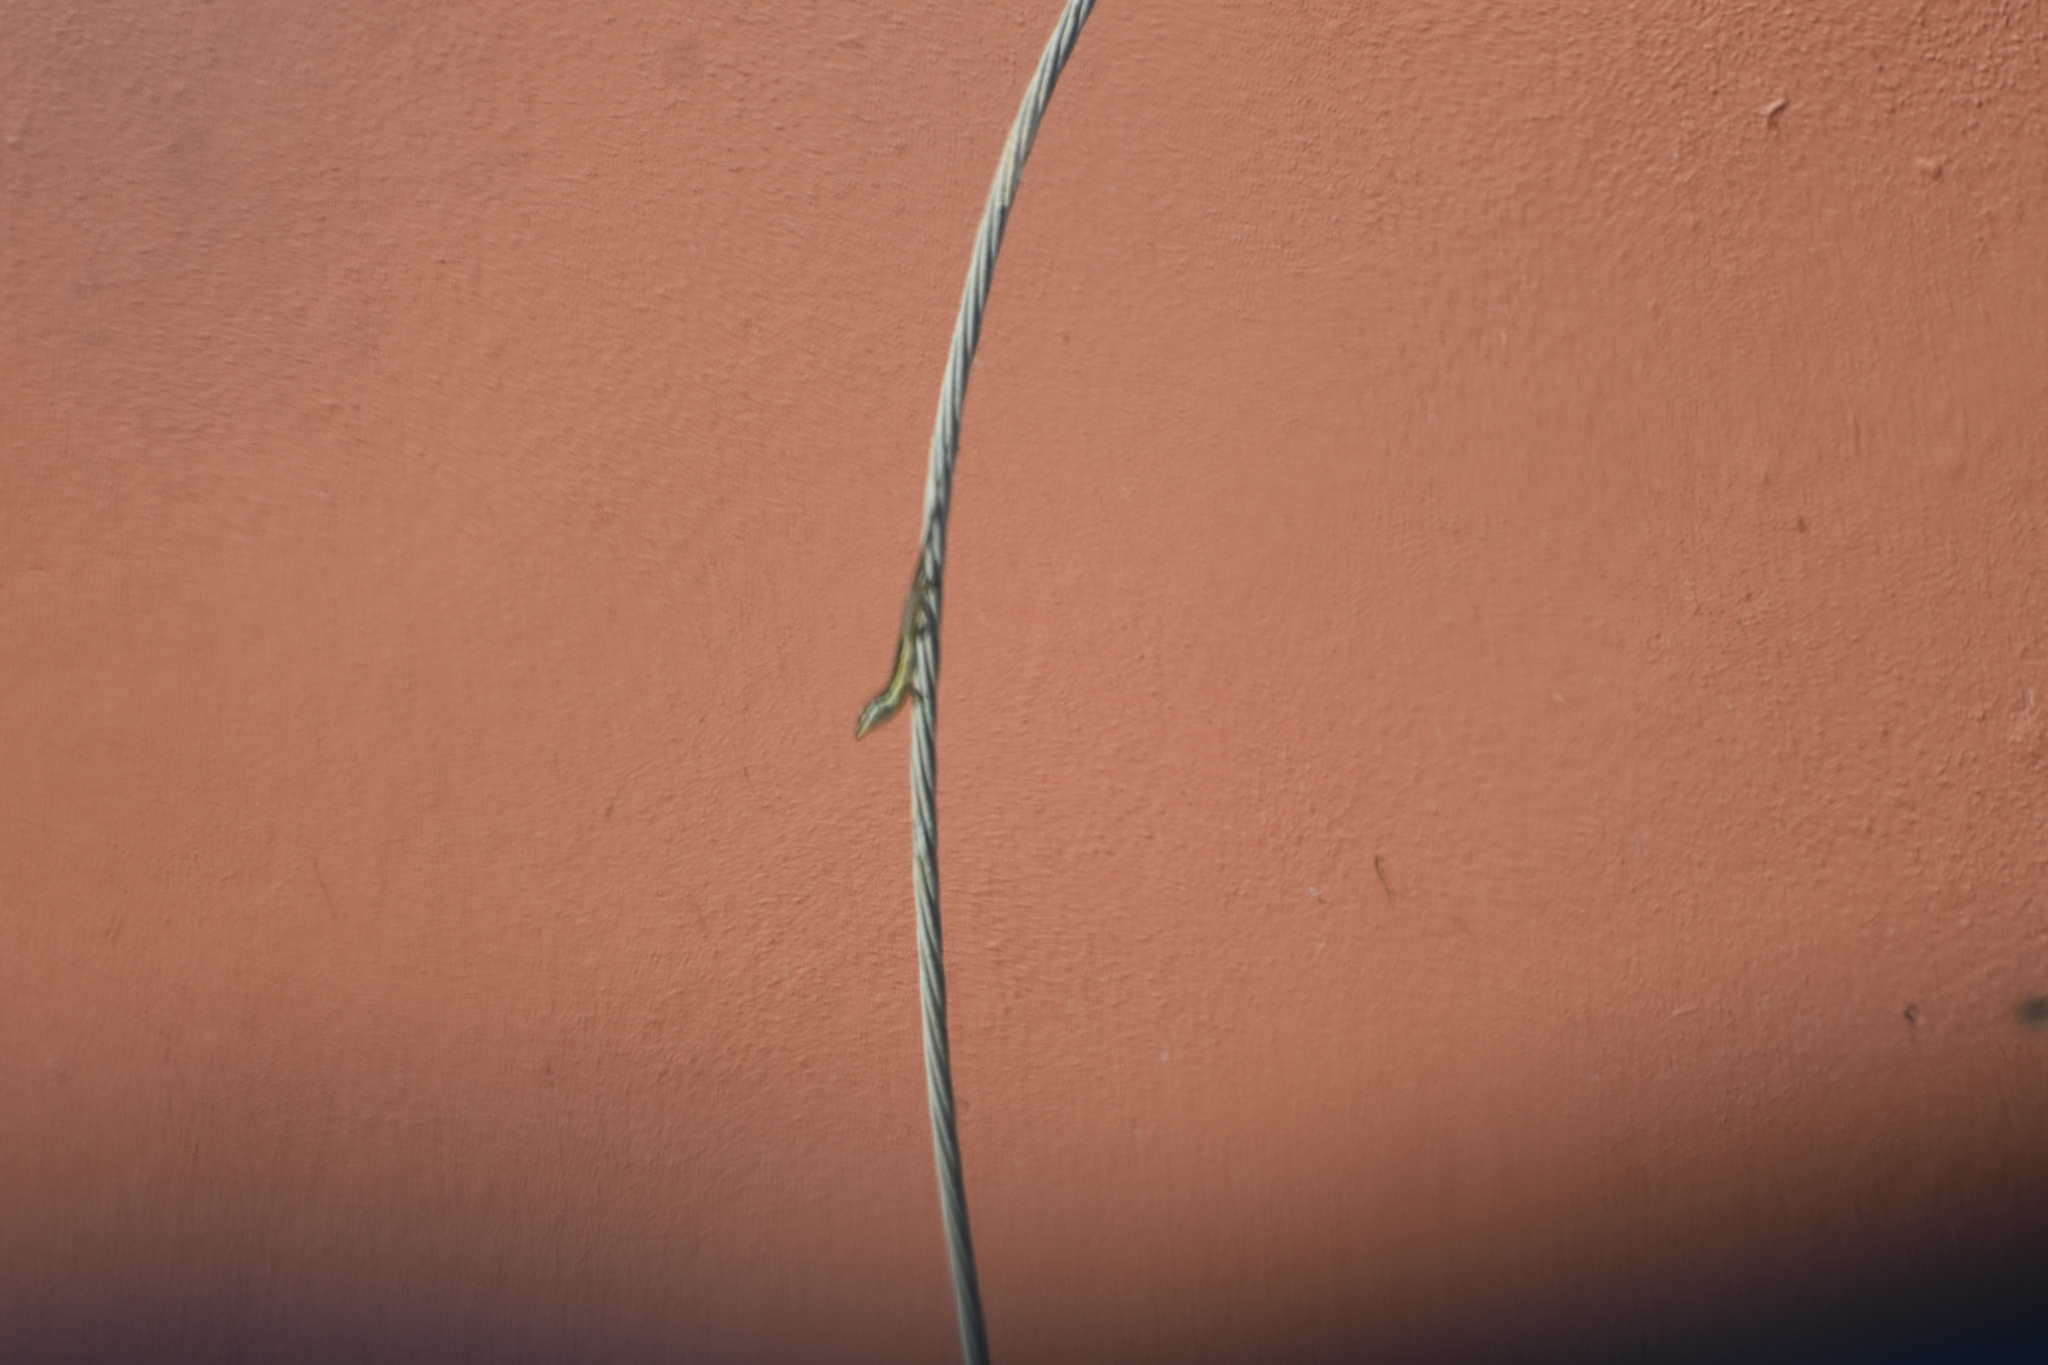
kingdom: Animalia
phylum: Chordata
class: Squamata
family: Dactyloidae
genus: Anolis
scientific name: Anolis pulchellus
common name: Puerto rican anole
